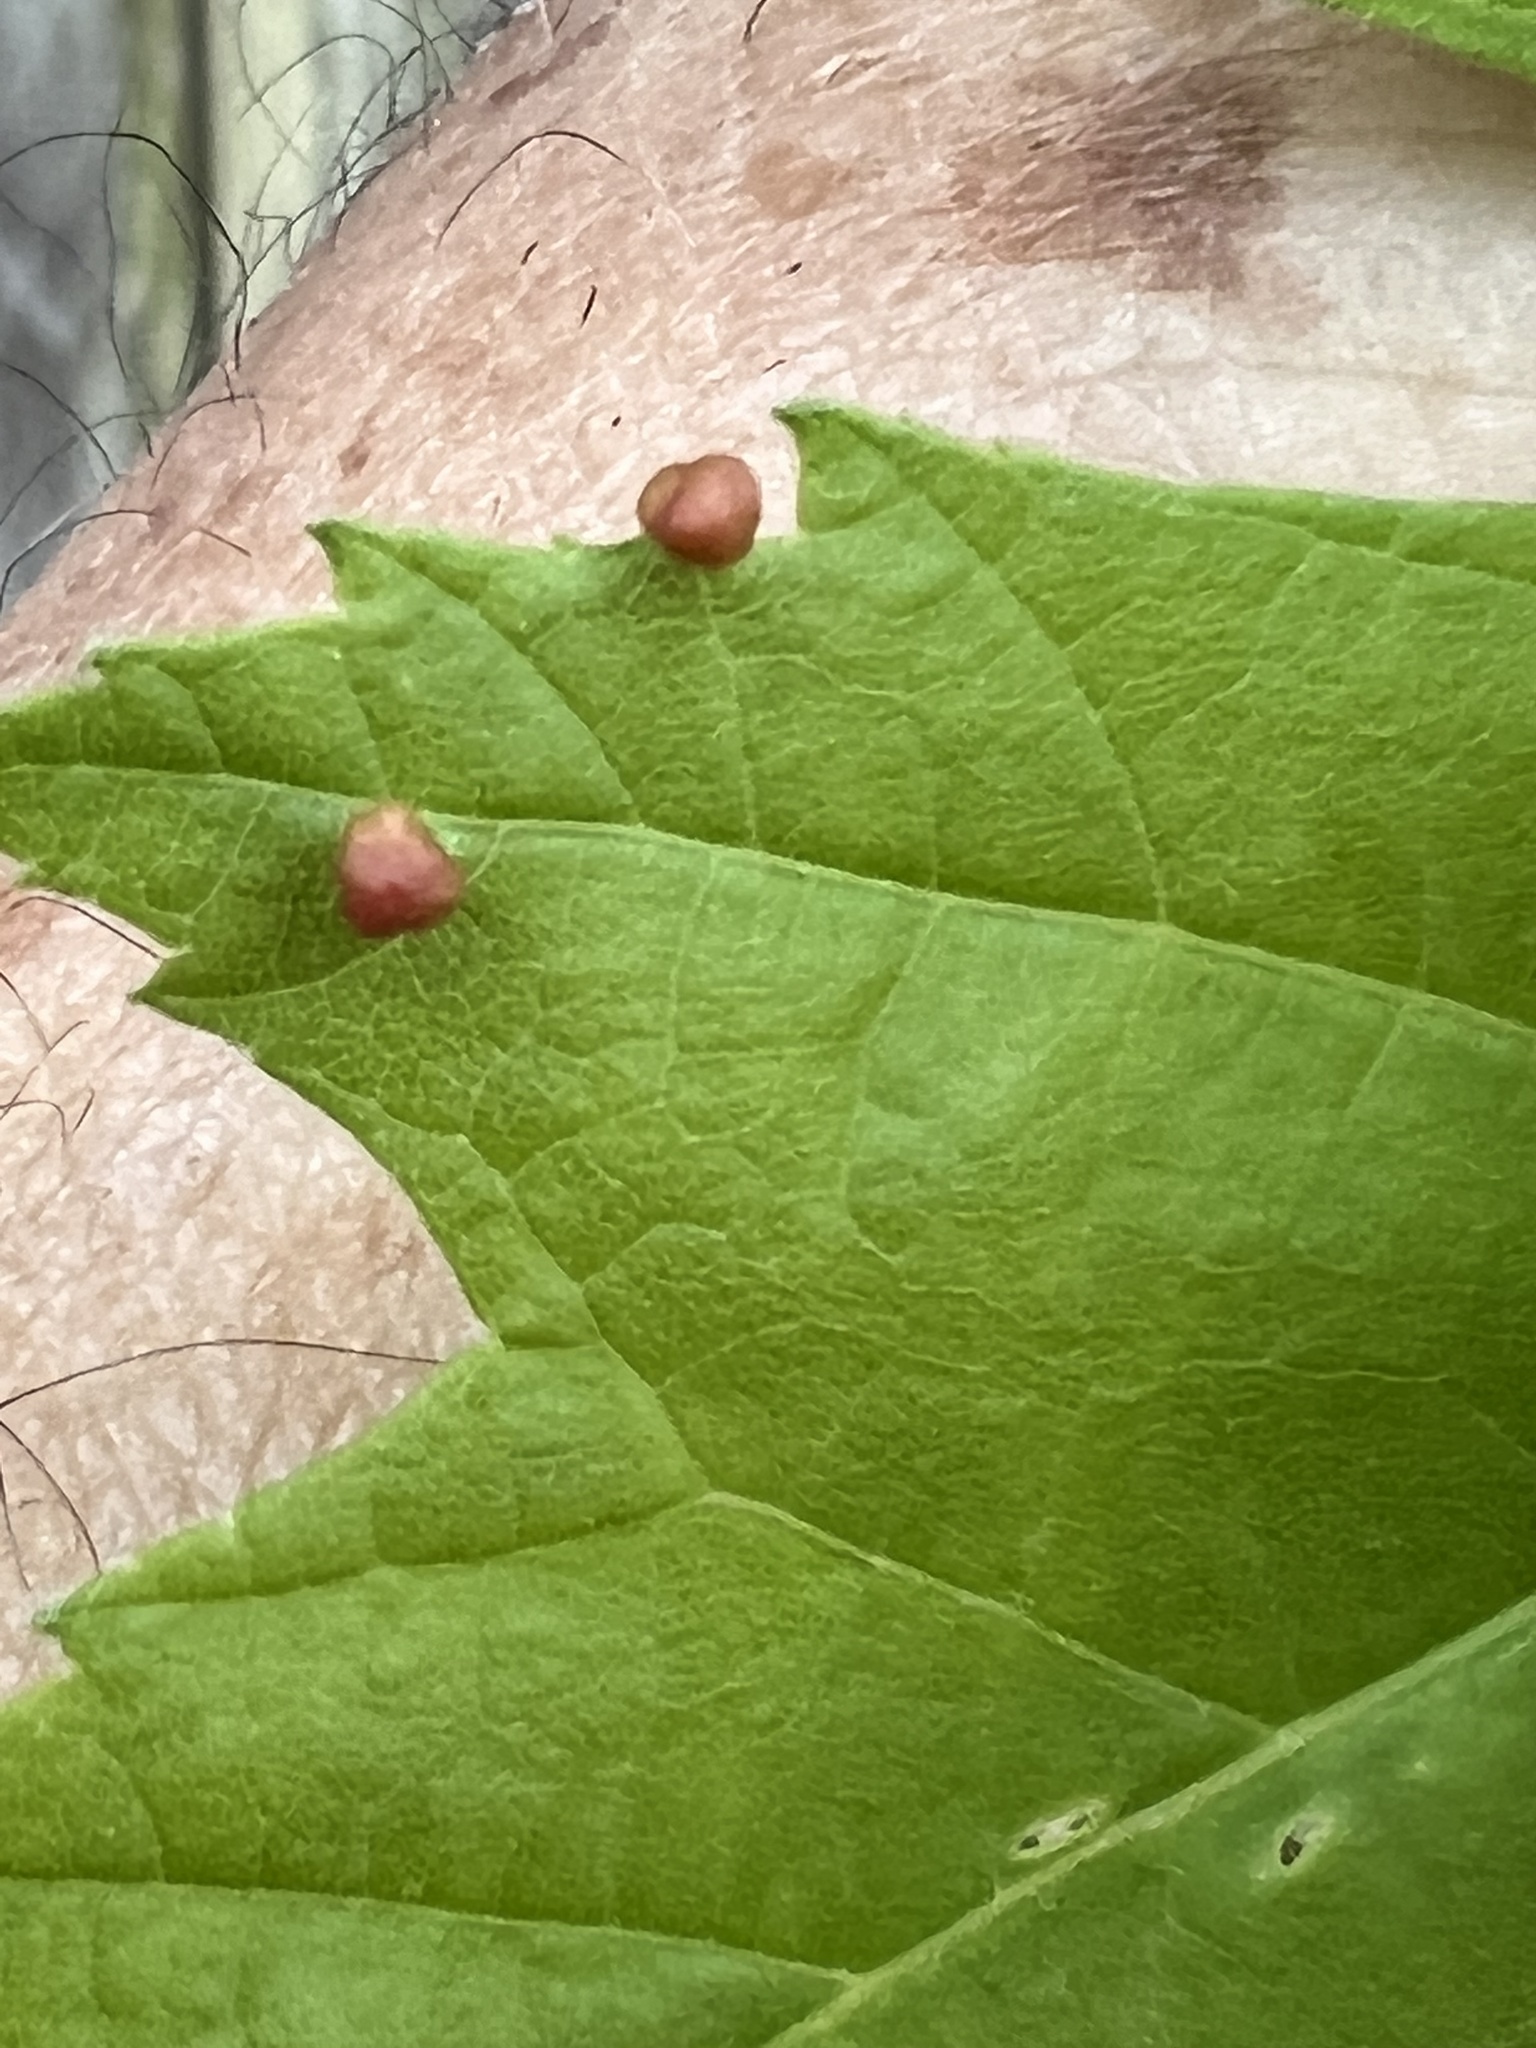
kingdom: Animalia
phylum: Arthropoda
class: Arachnida
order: Trombidiformes
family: Eriophyidae
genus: Vasates
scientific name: Vasates quadripedes
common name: Maple bladder gall mite
